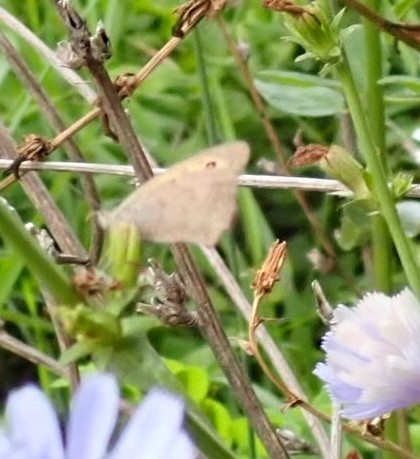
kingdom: Animalia
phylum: Arthropoda
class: Insecta
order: Lepidoptera
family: Nymphalidae
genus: Hyponephele
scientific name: Hyponephele lycaon
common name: Dusky meadow brown
